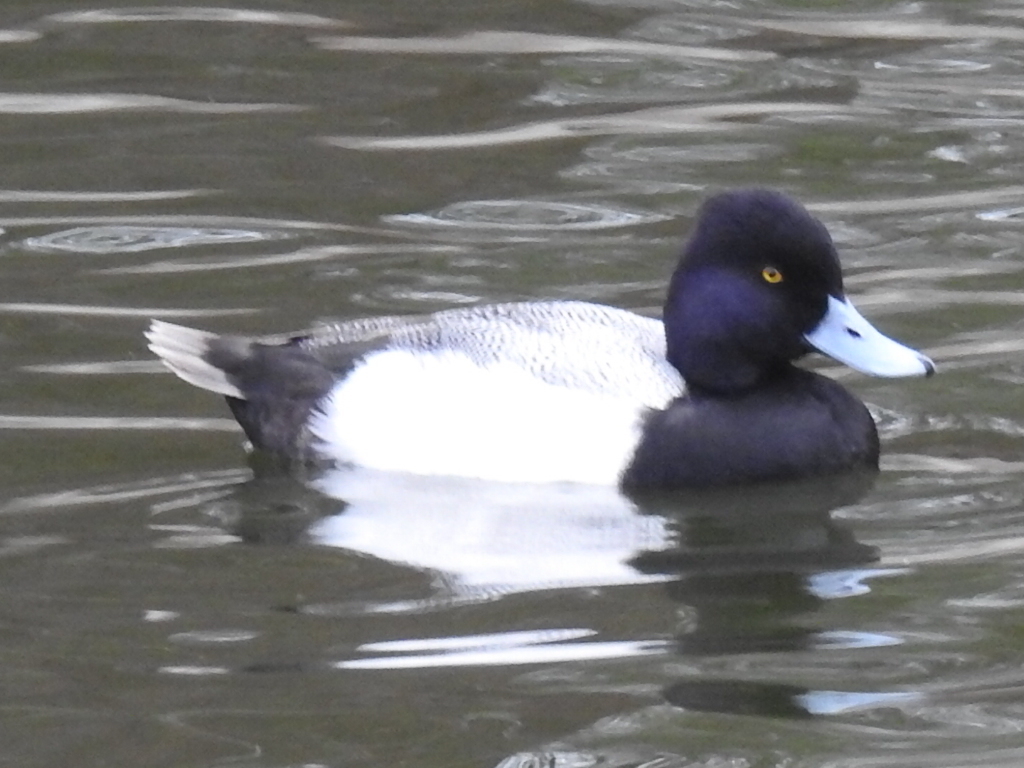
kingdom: Animalia
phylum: Chordata
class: Aves
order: Anseriformes
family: Anatidae
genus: Aythya
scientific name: Aythya affinis
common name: Lesser scaup
